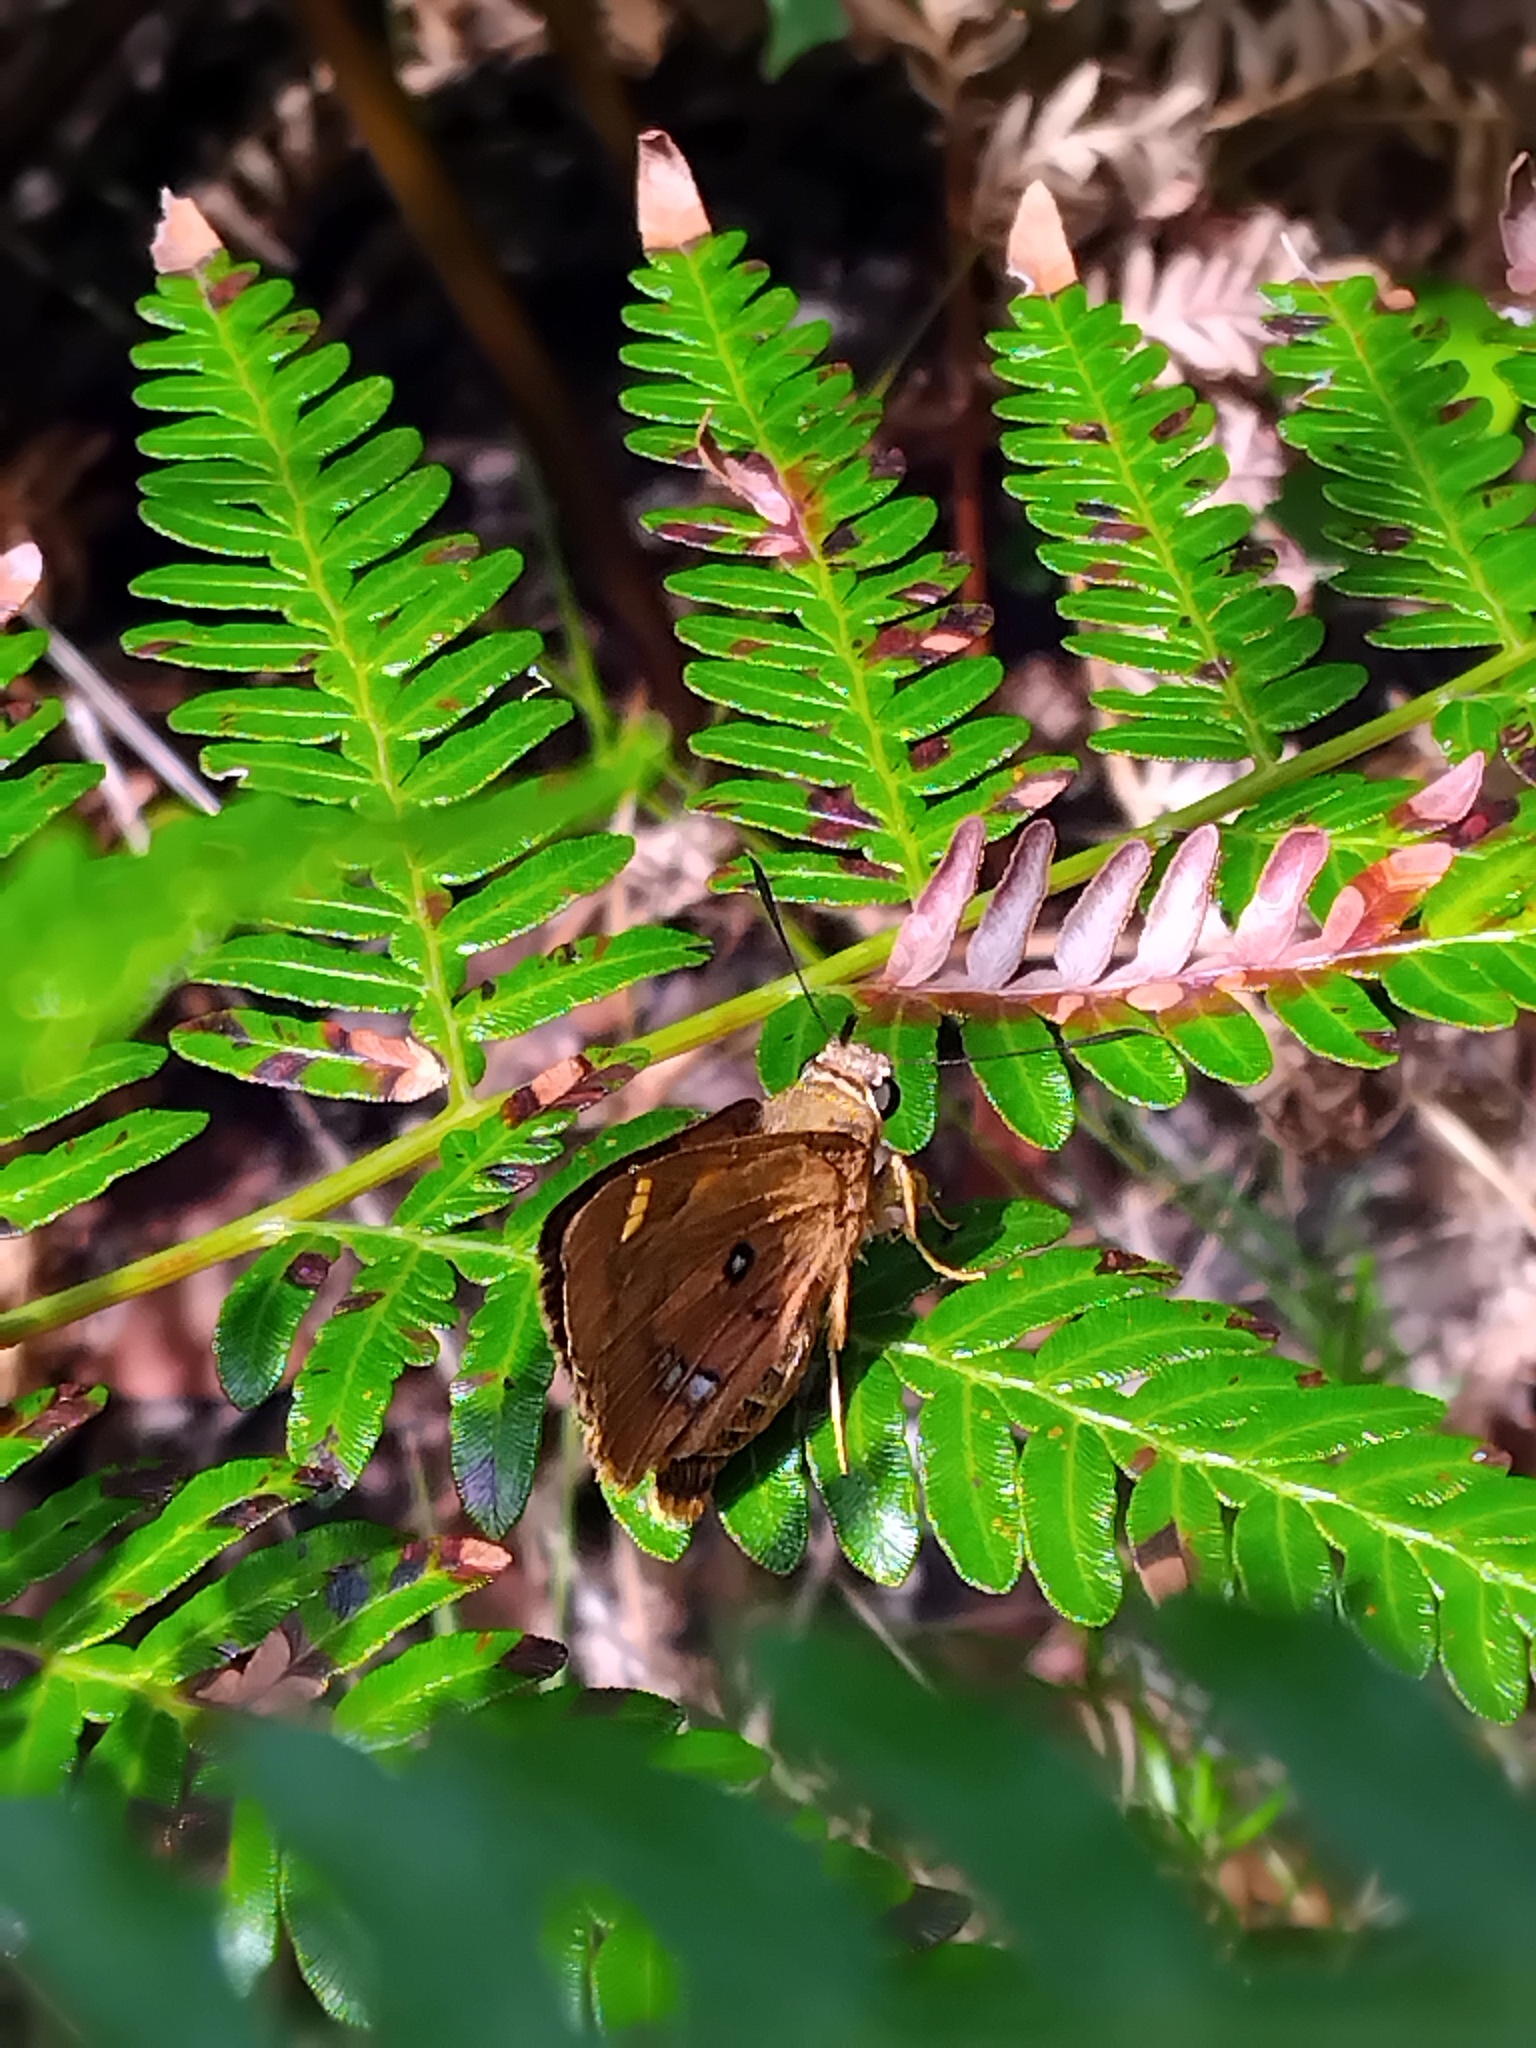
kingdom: Animalia
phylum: Arthropoda
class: Insecta
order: Lepidoptera
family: Hesperiidae
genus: Trapezites
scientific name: Trapezites symmomus
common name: Splendid ochre
